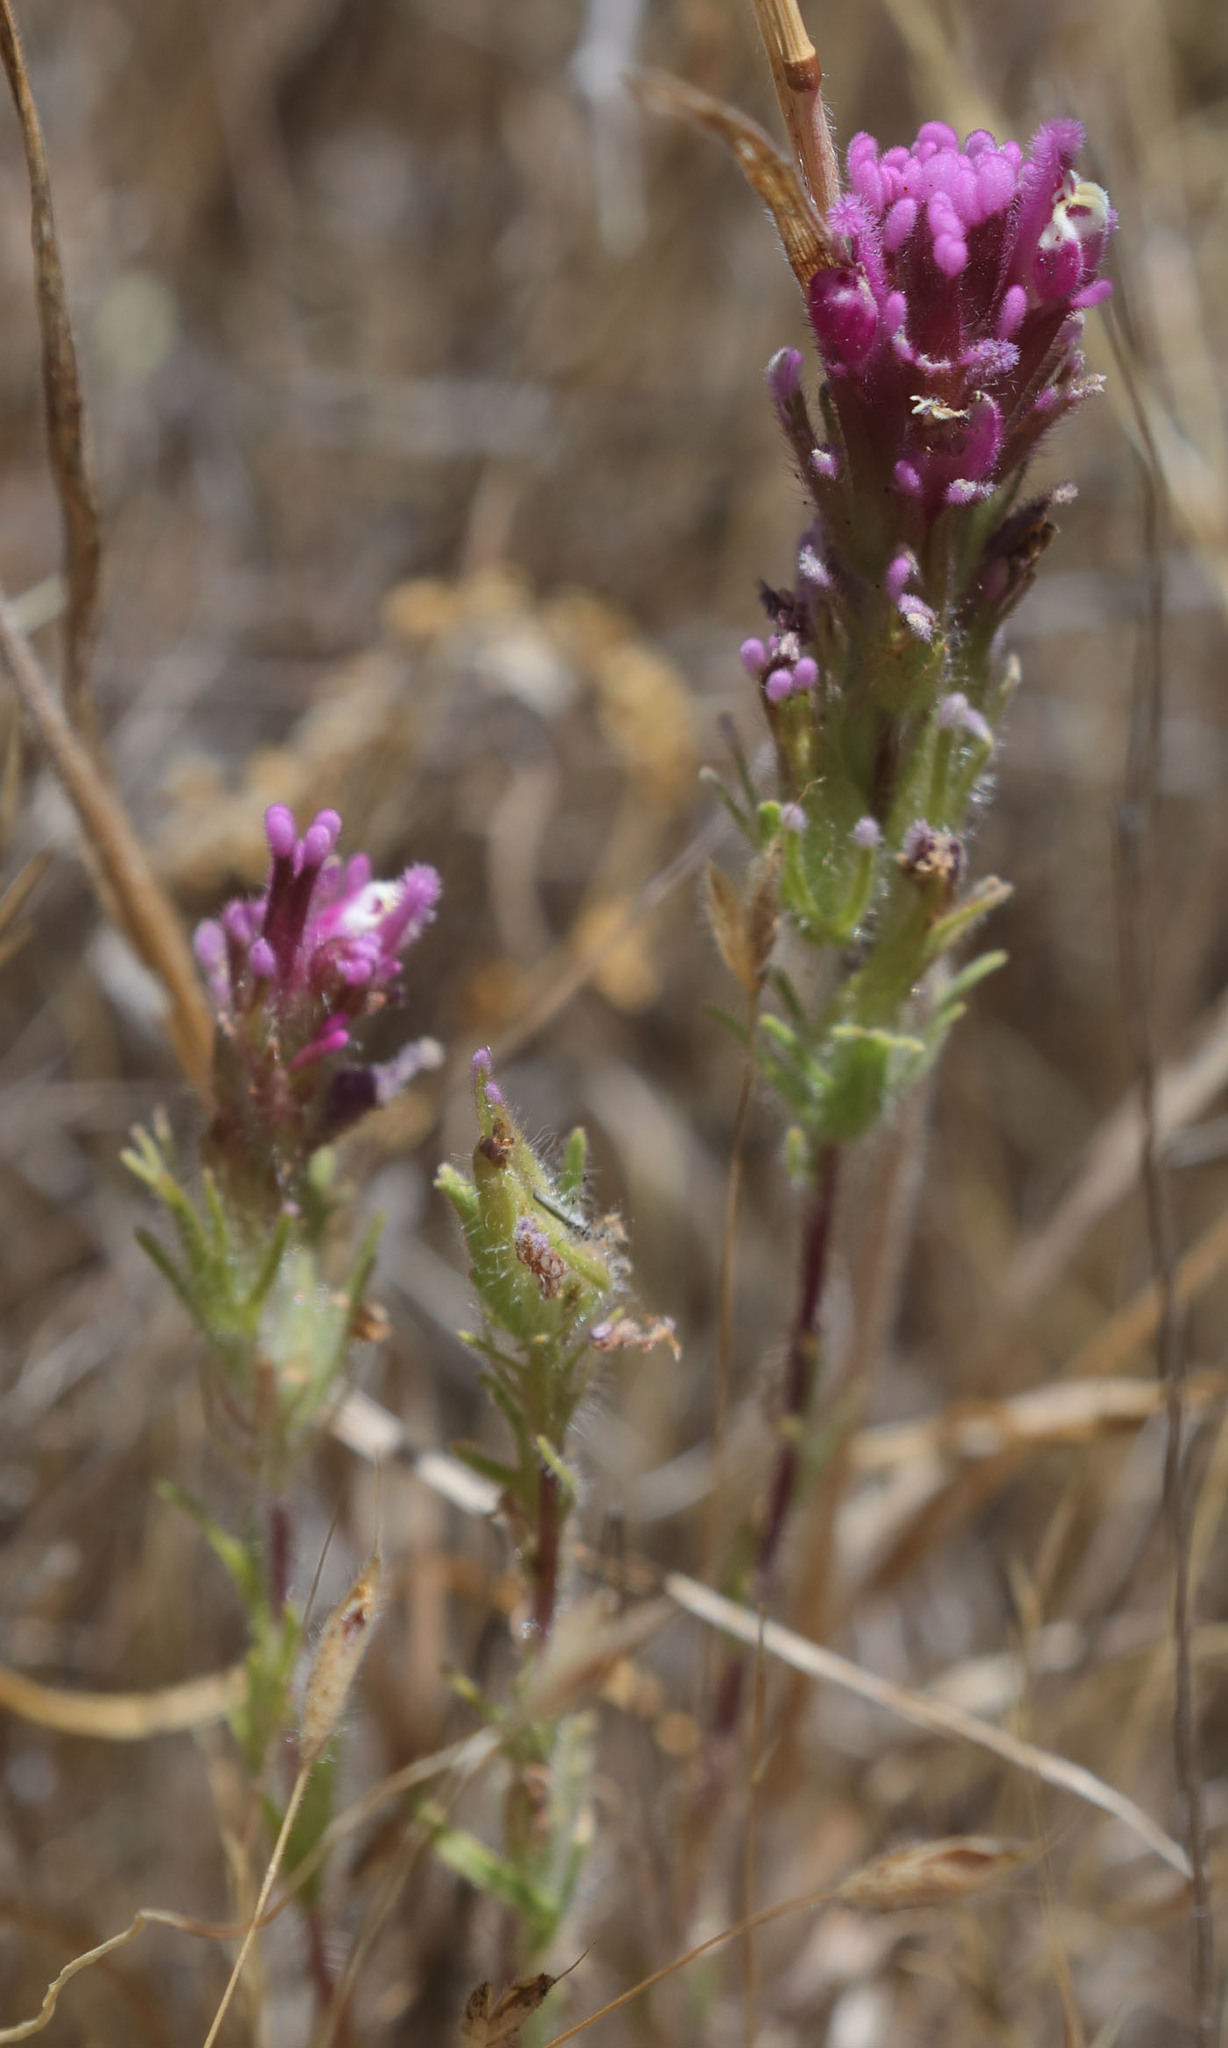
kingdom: Plantae
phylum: Tracheophyta
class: Magnoliopsida
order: Lamiales
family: Orobanchaceae
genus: Castilleja
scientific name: Castilleja exserta
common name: Purple owl-clover
